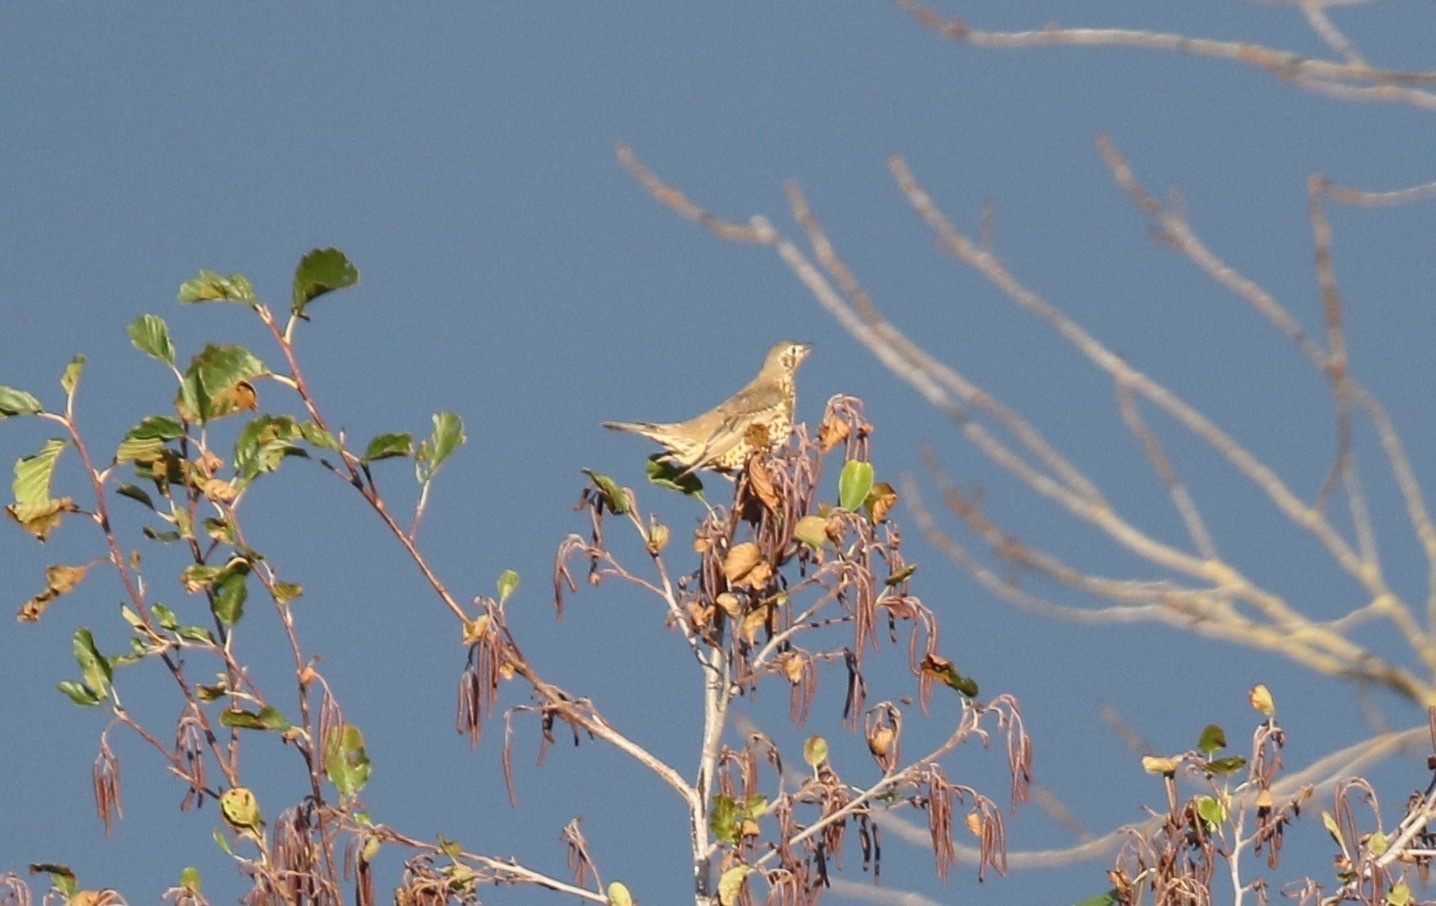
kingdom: Animalia
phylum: Chordata
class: Aves
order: Passeriformes
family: Turdidae
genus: Turdus
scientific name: Turdus viscivorus
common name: Mistle thrush
